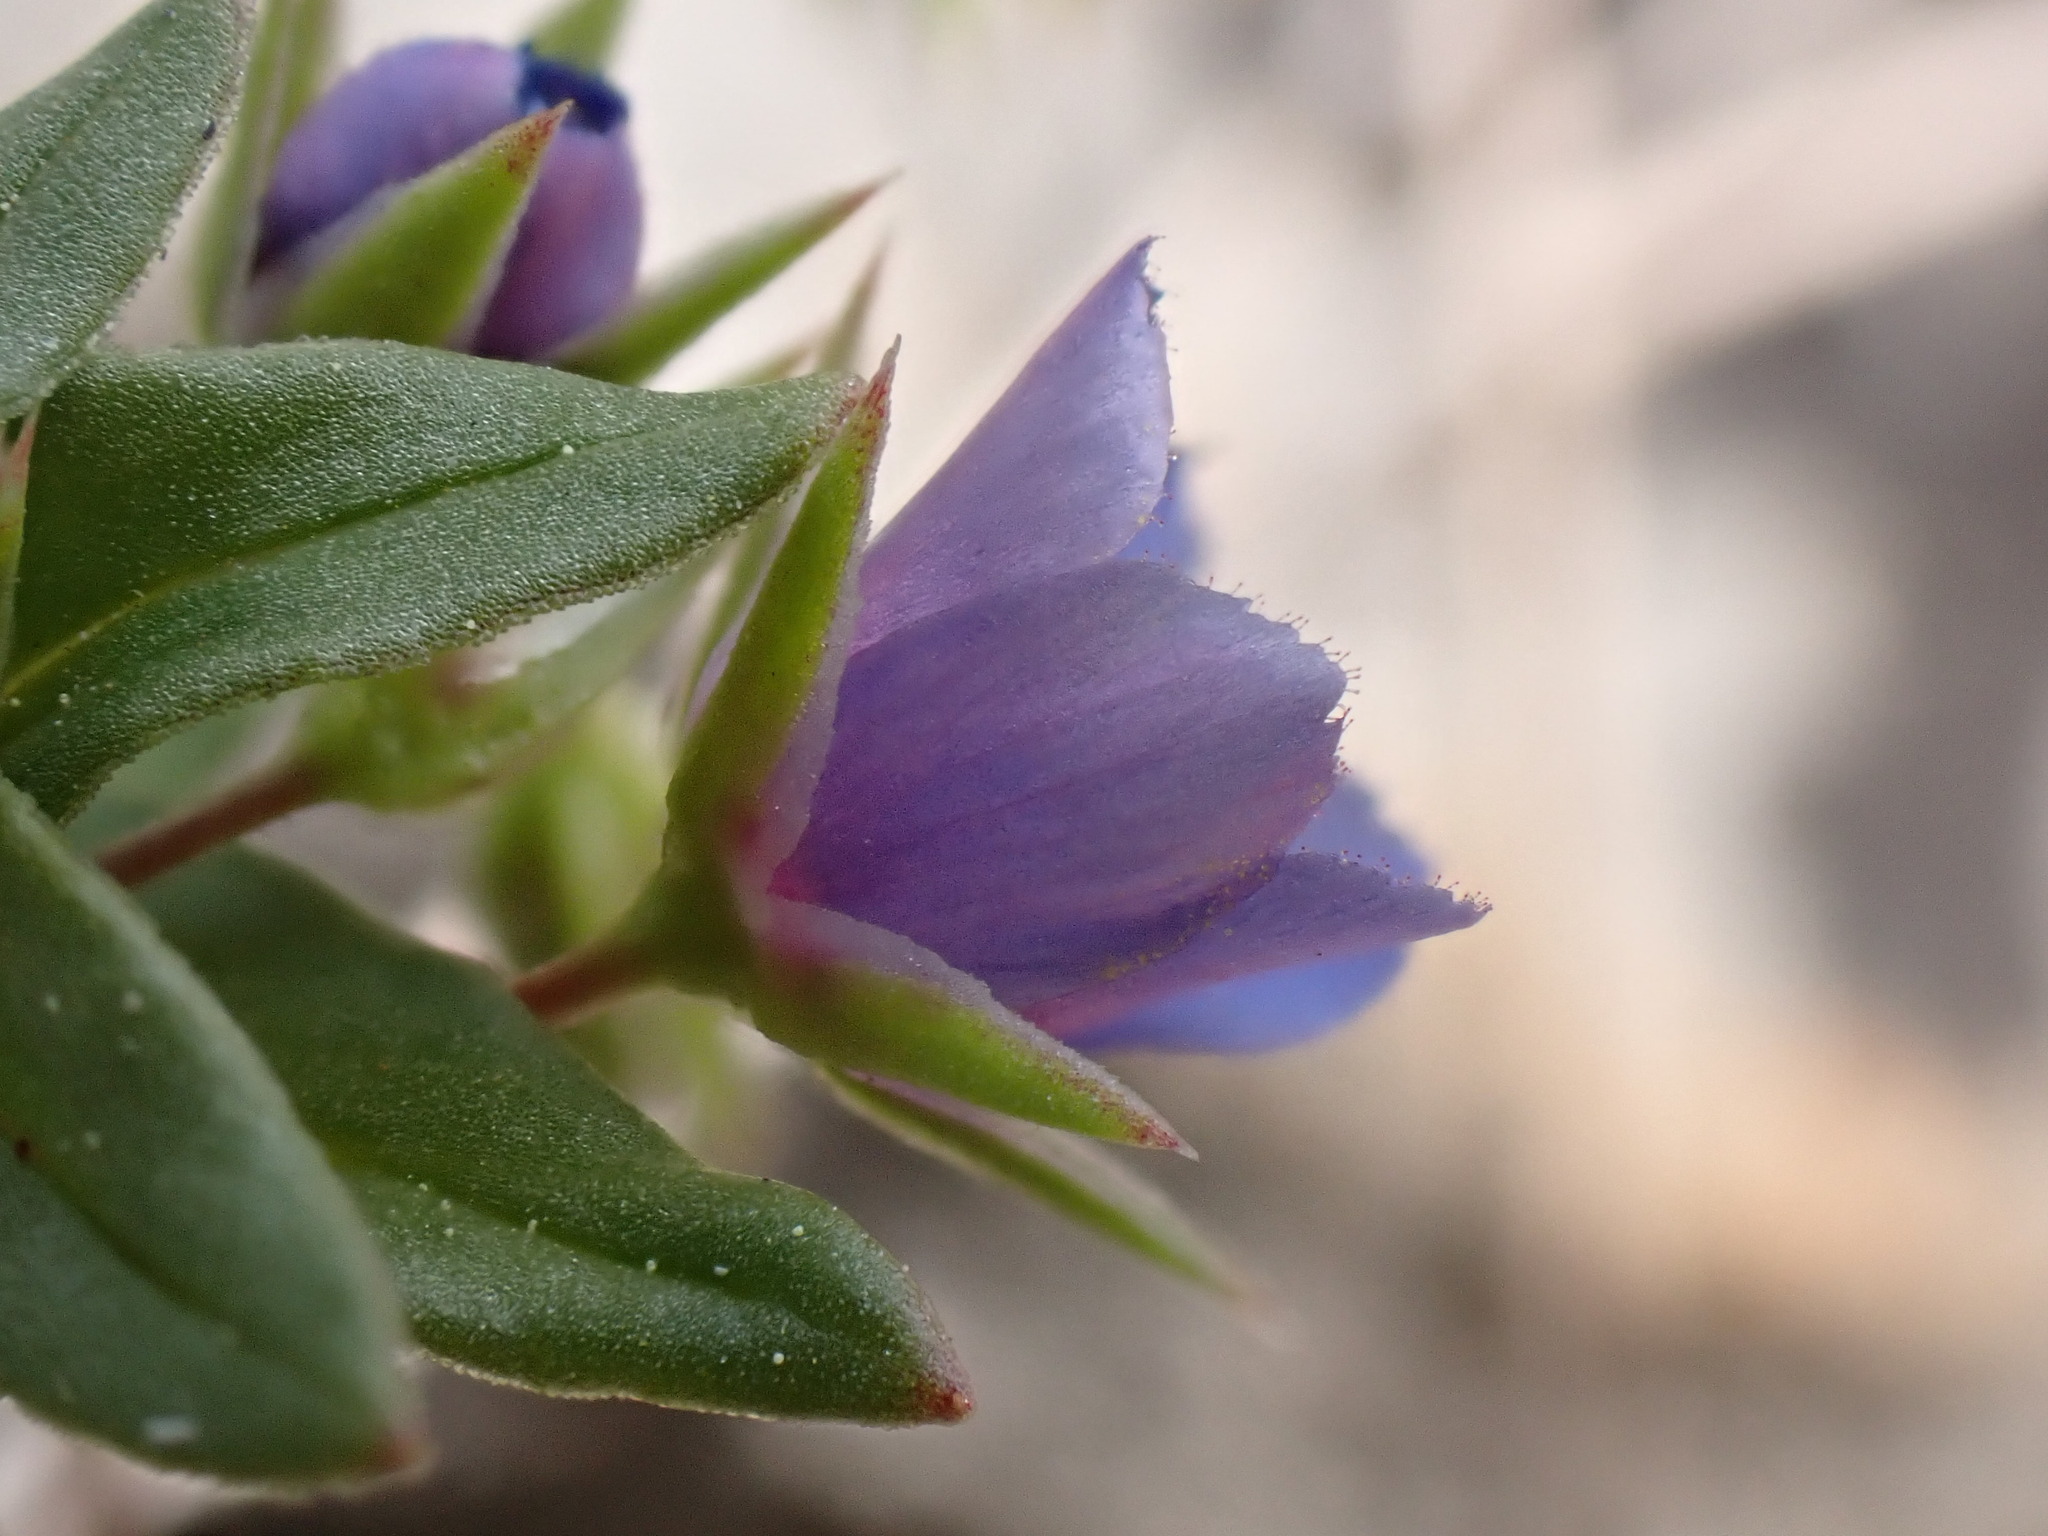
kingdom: Plantae
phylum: Tracheophyta
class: Magnoliopsida
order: Ericales
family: Primulaceae
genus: Lysimachia
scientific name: Lysimachia foemina
